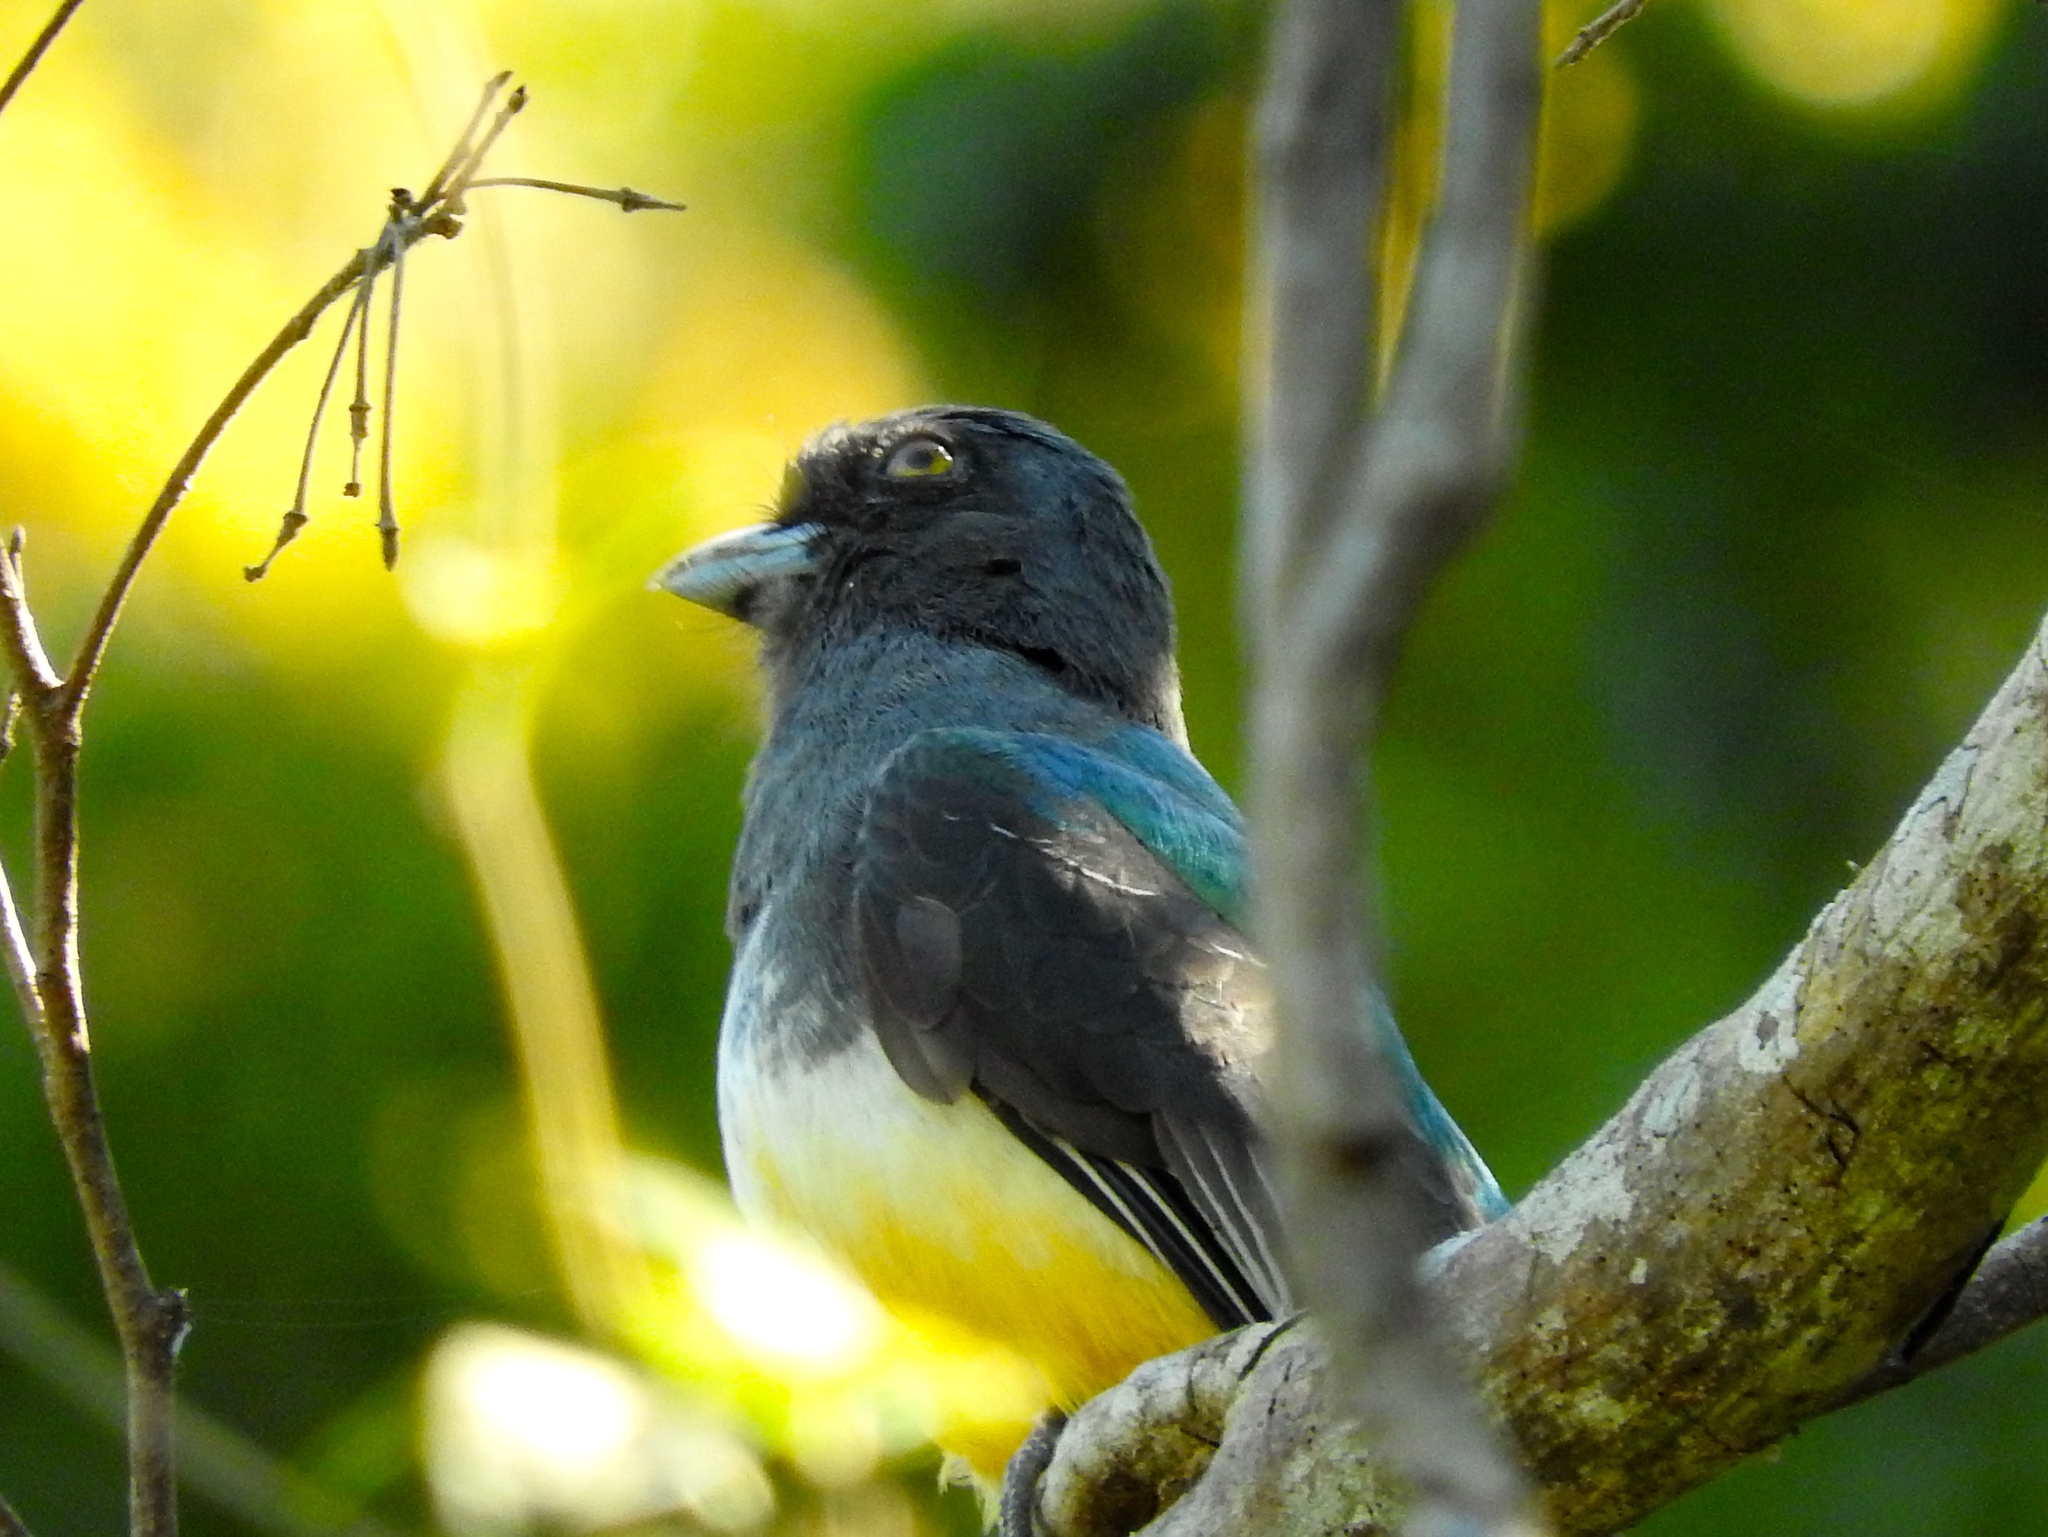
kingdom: Animalia
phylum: Chordata
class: Aves
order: Trogoniformes
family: Trogonidae
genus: Trogon
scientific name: Trogon citreolus
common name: Citreoline trogon
